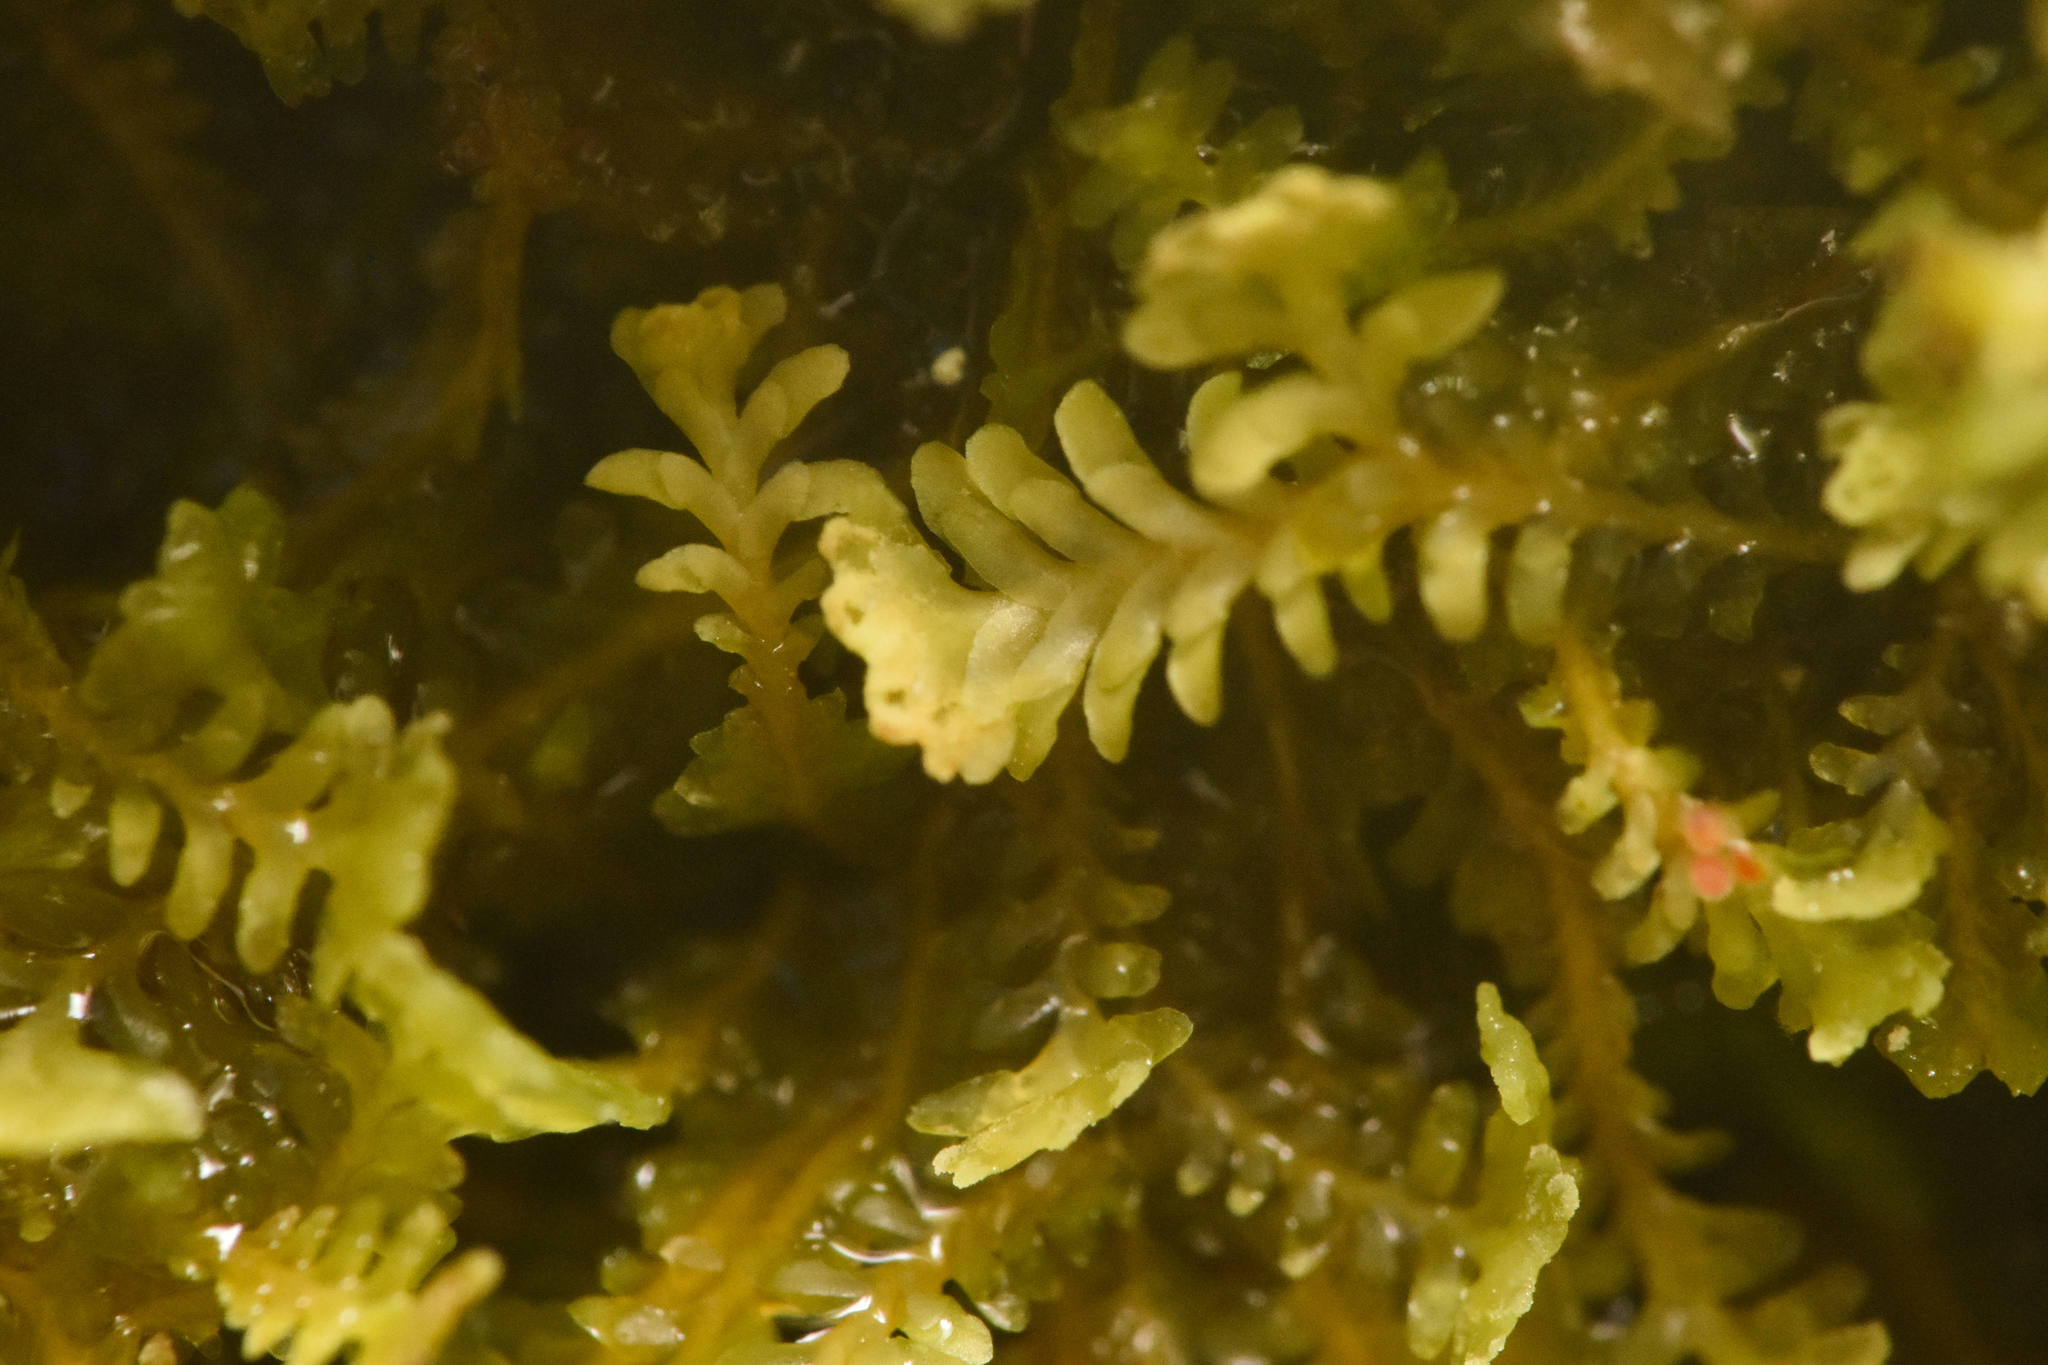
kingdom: Plantae
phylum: Marchantiophyta
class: Jungermanniopsida
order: Jungermanniales
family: Scapaniaceae
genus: Diplophyllum
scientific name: Diplophyllum albicans
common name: White earwort
